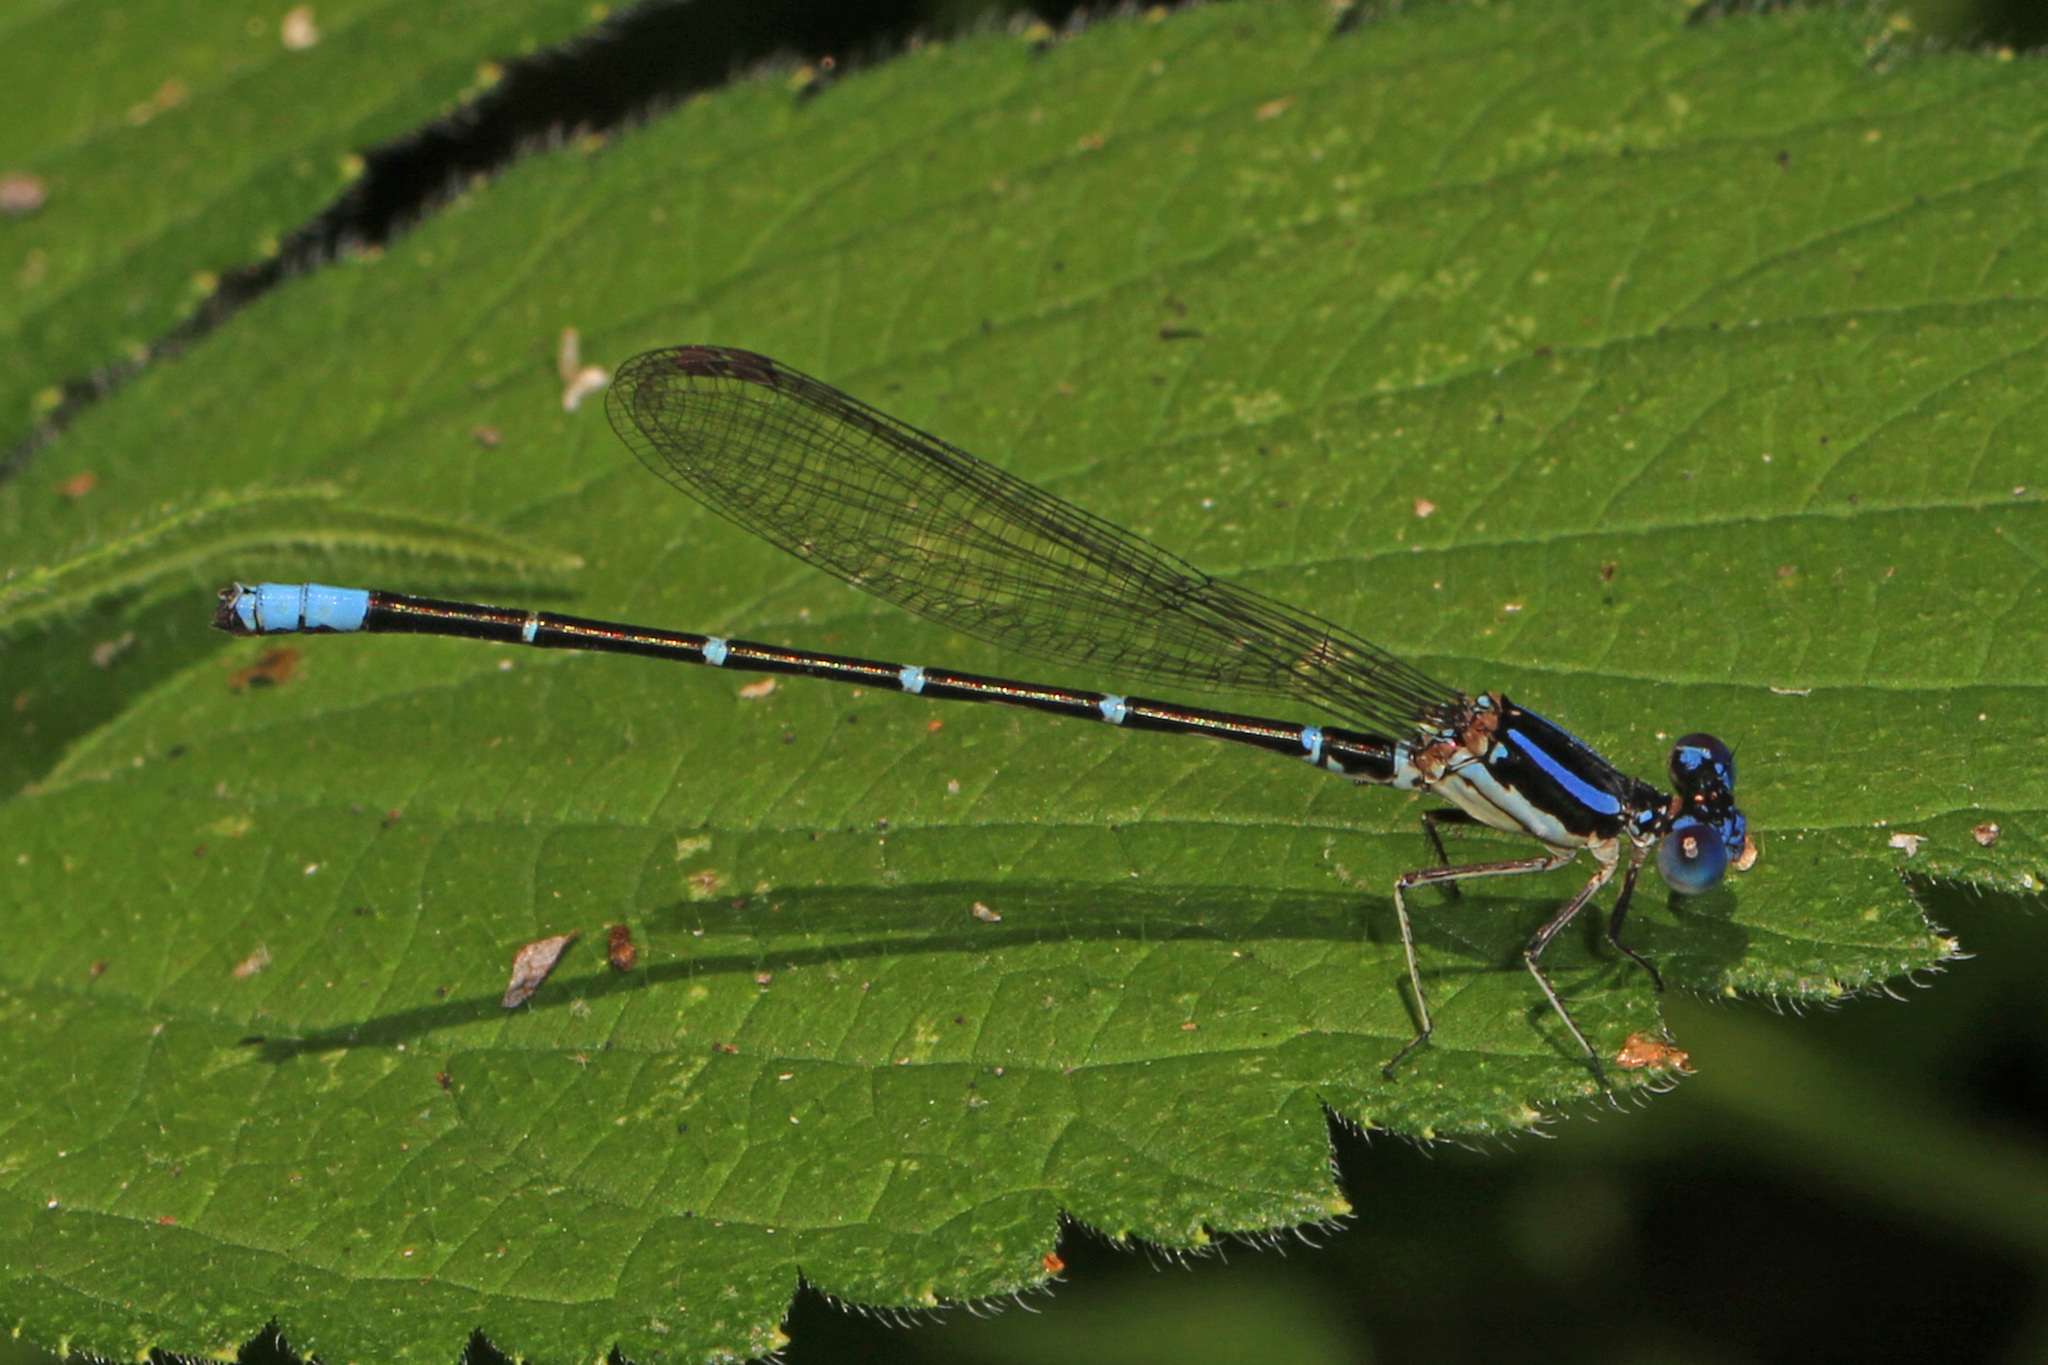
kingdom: Animalia
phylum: Arthropoda
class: Insecta
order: Odonata
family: Coenagrionidae
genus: Argia
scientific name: Argia sedula
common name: Blue-ringed dancer
